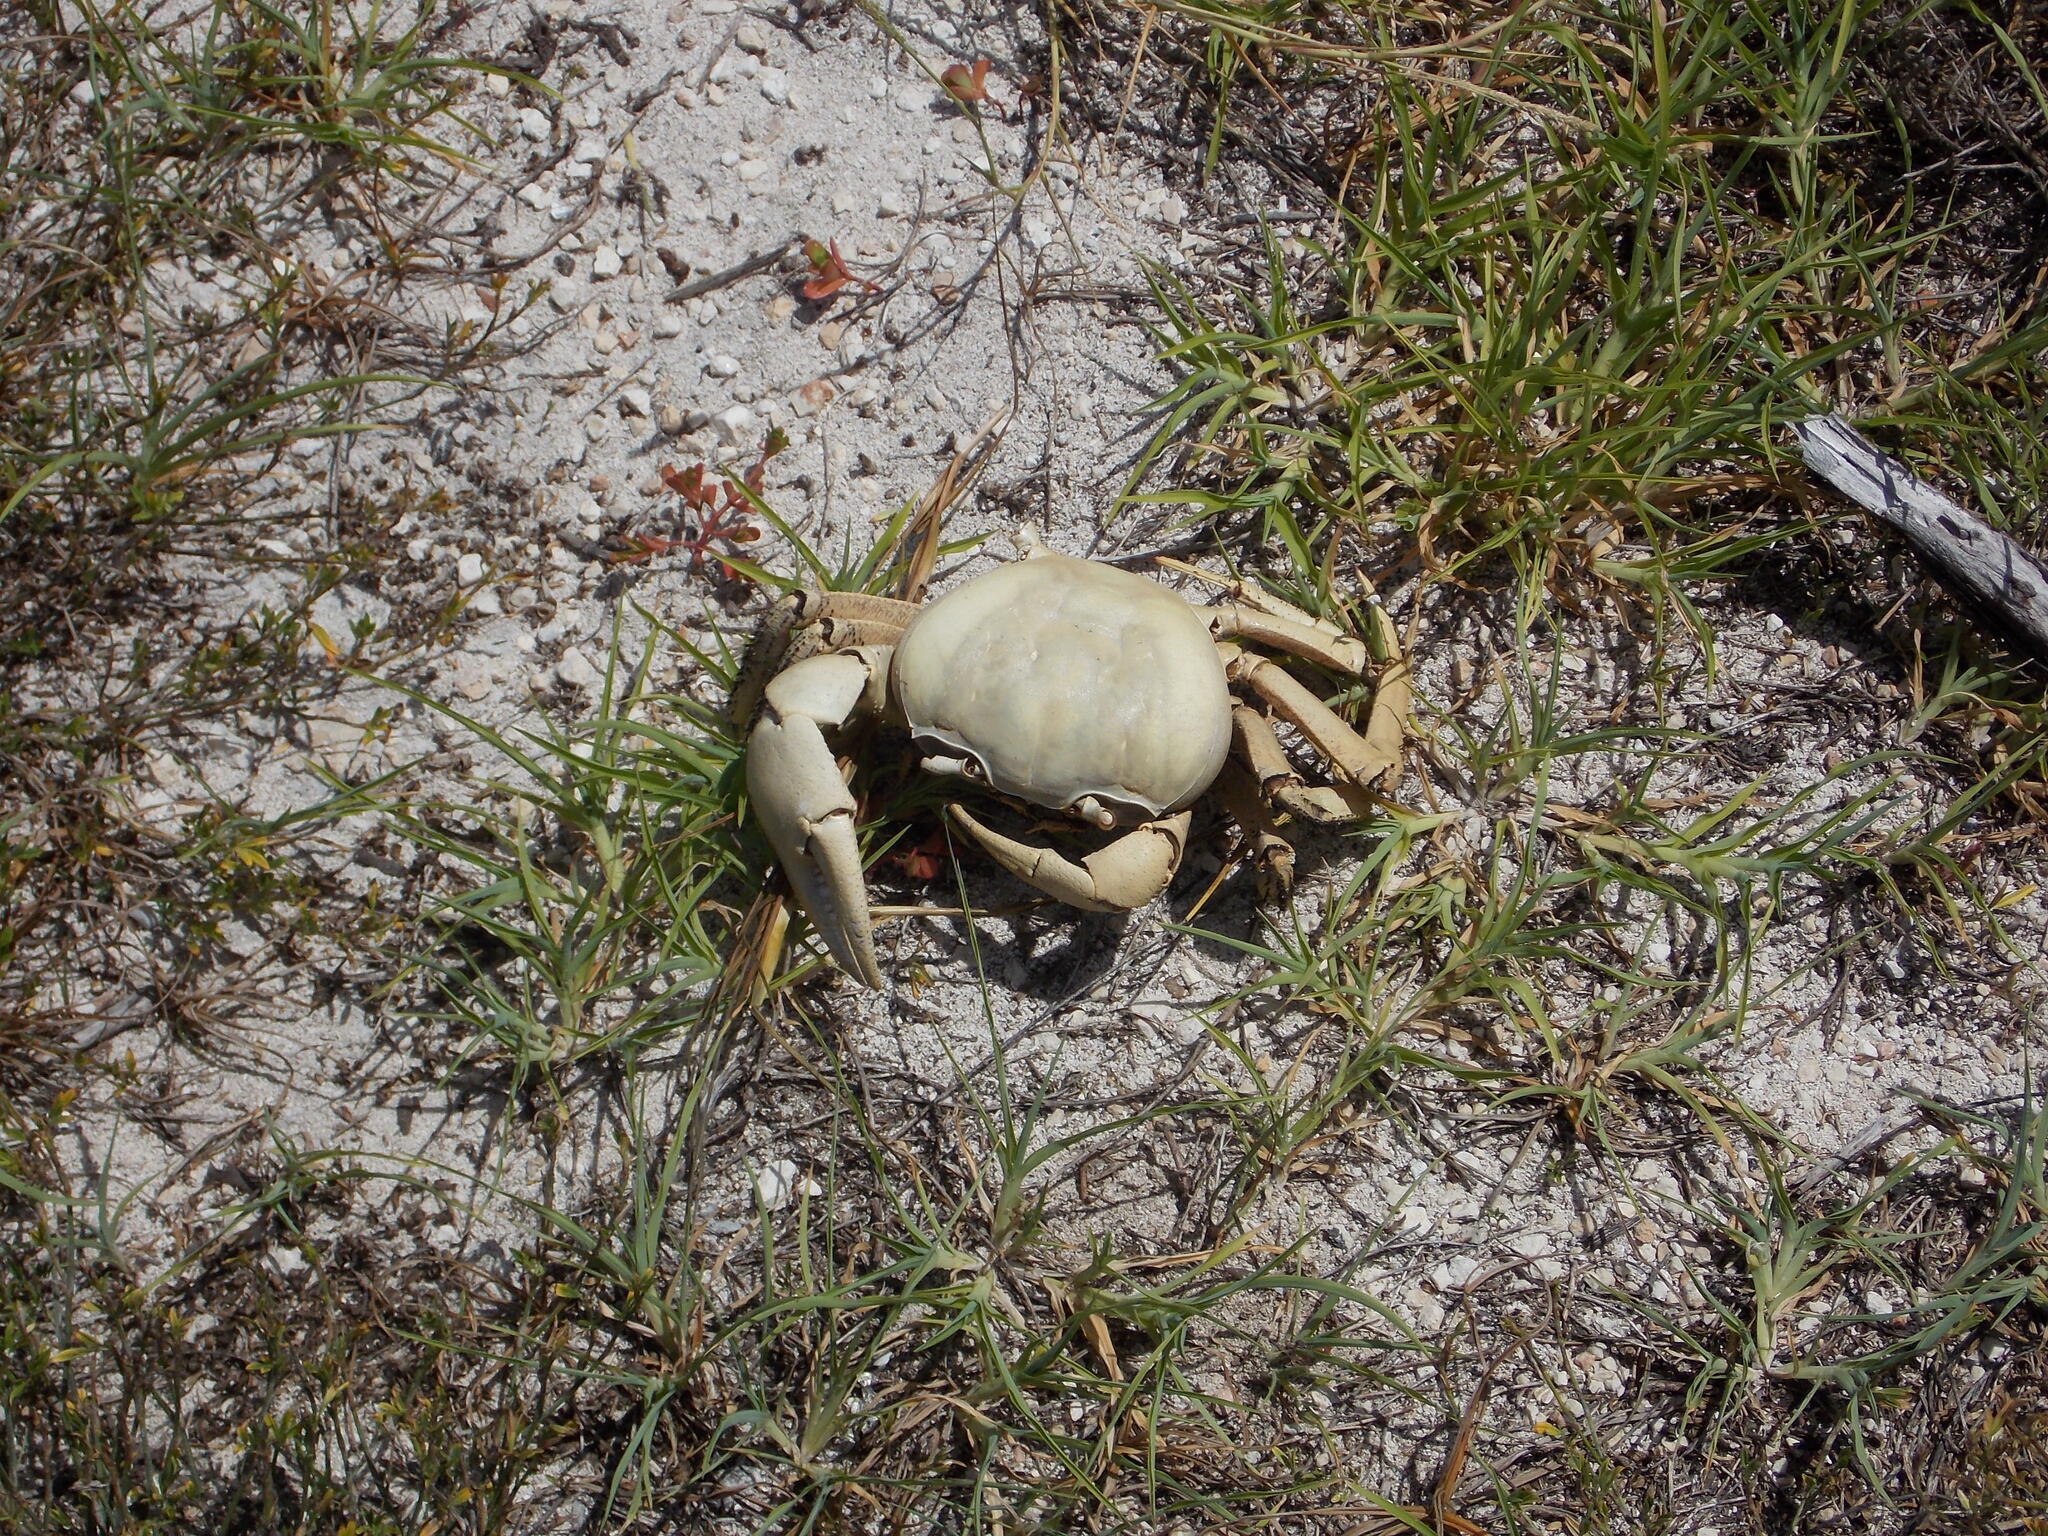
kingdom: Animalia
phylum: Arthropoda
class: Malacostraca
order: Decapoda
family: Gecarcinidae
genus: Cardisoma
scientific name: Cardisoma guanhumi
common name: Great land crab
